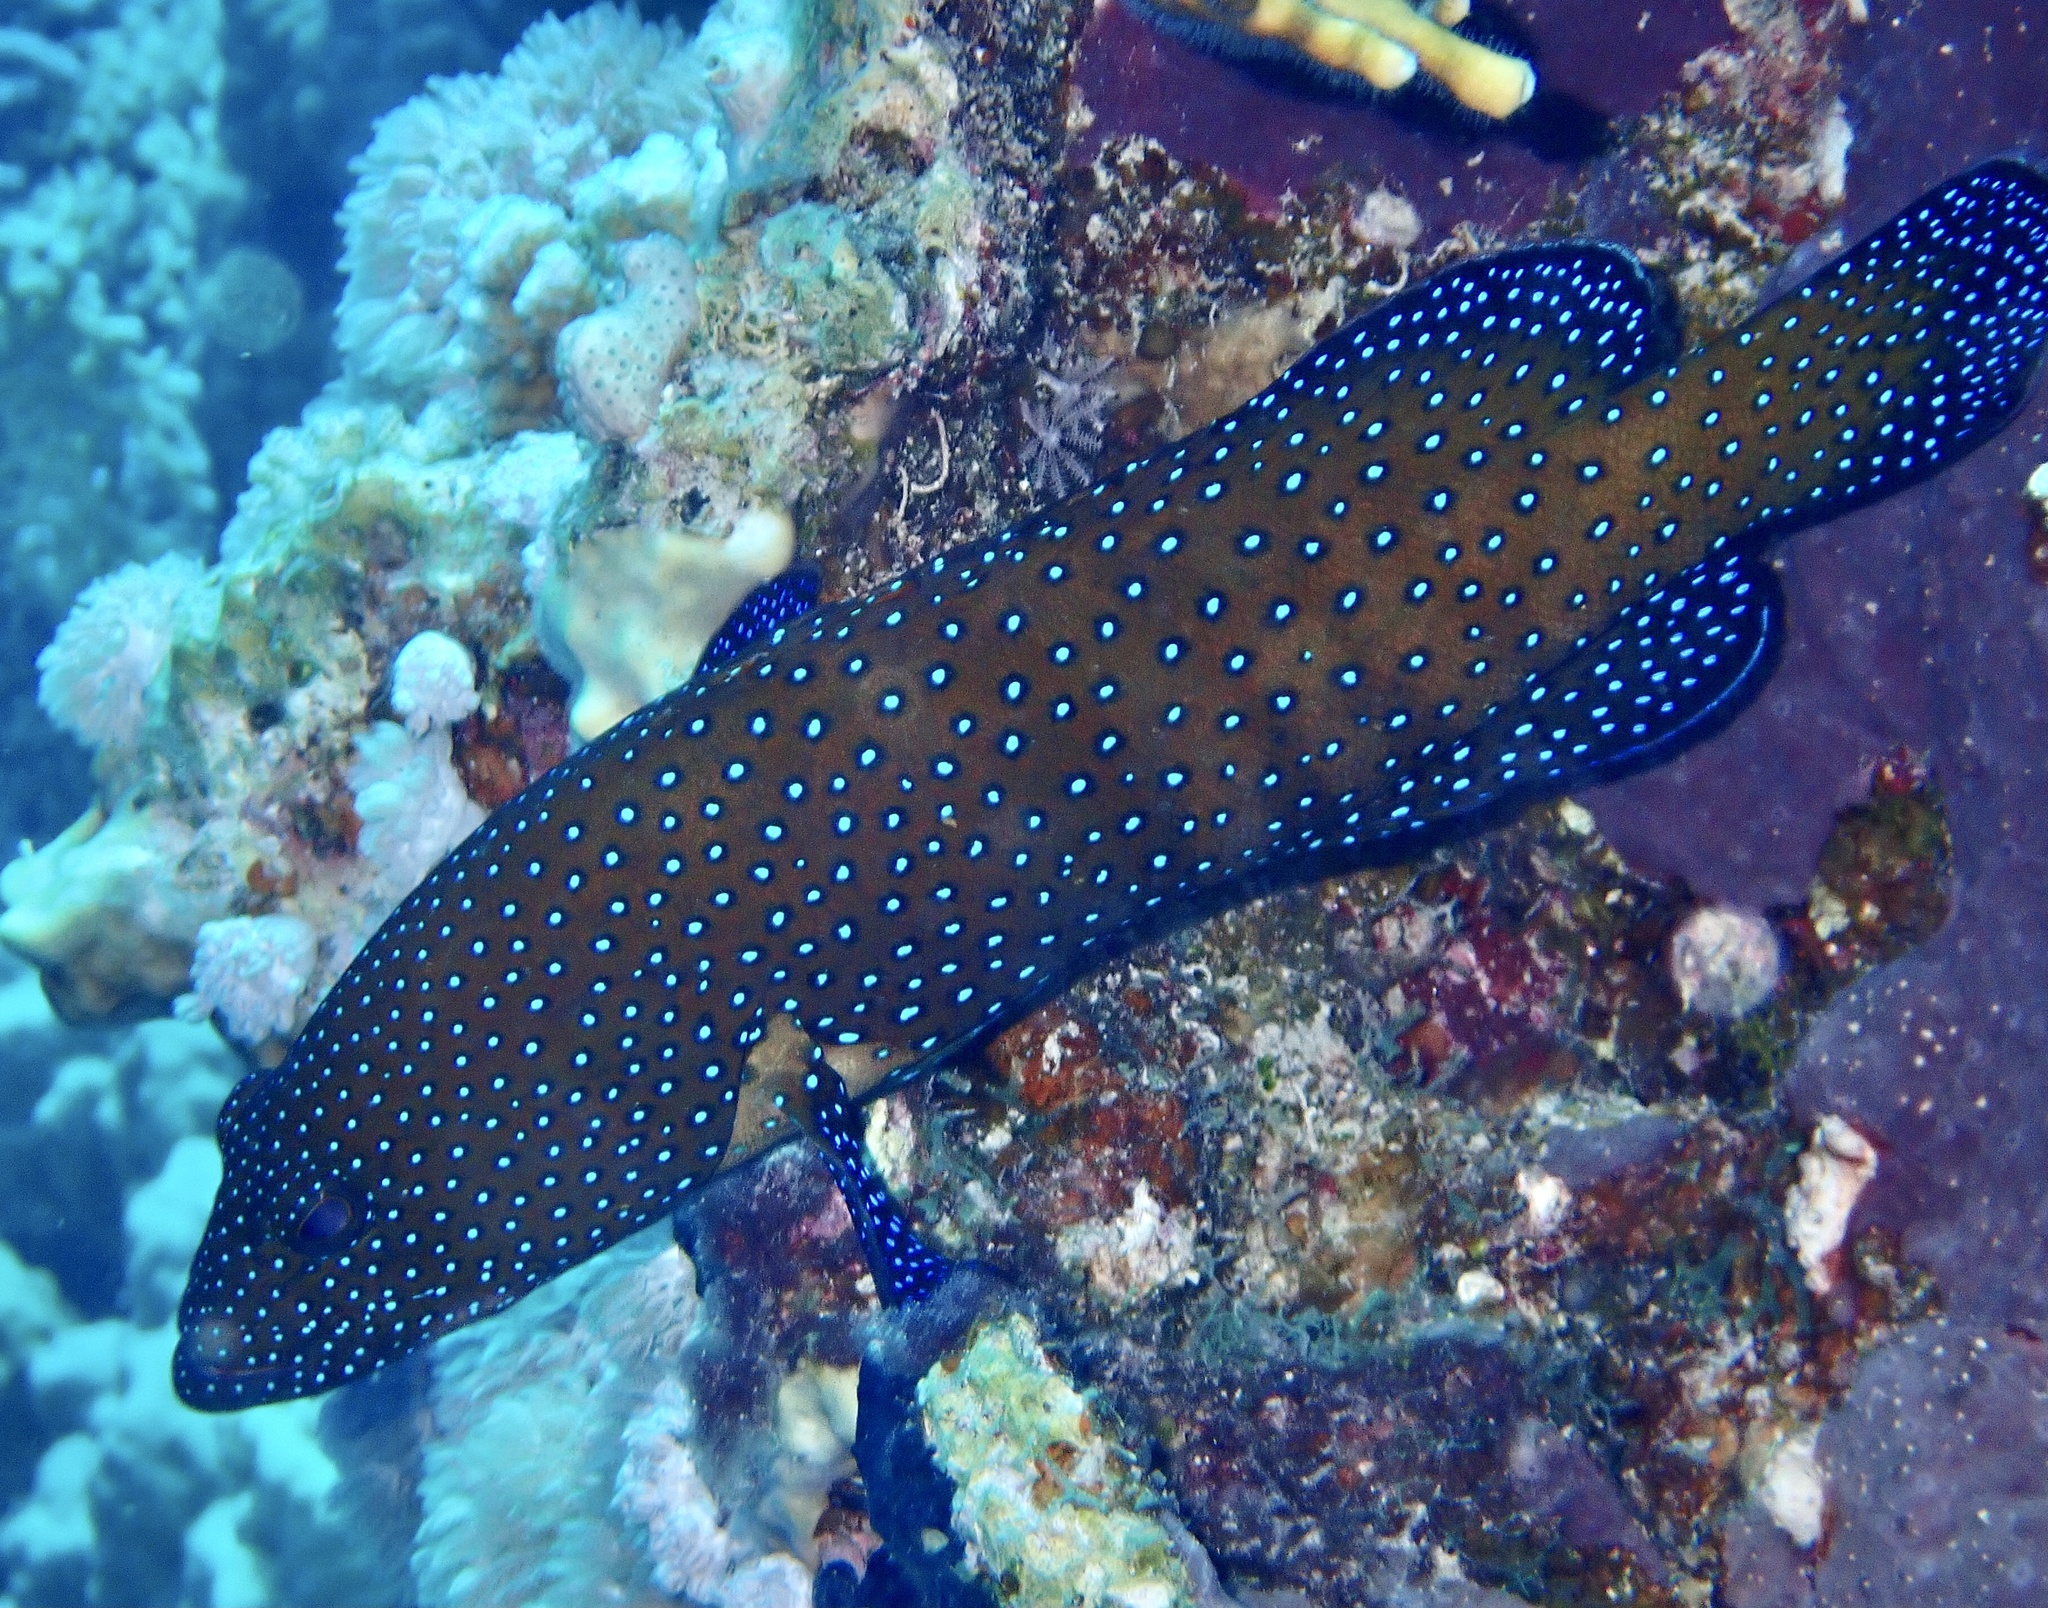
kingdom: Animalia
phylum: Chordata
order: Perciformes
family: Serranidae
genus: Cephalopholis
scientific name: Cephalopholis argus
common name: Peacock grouper
